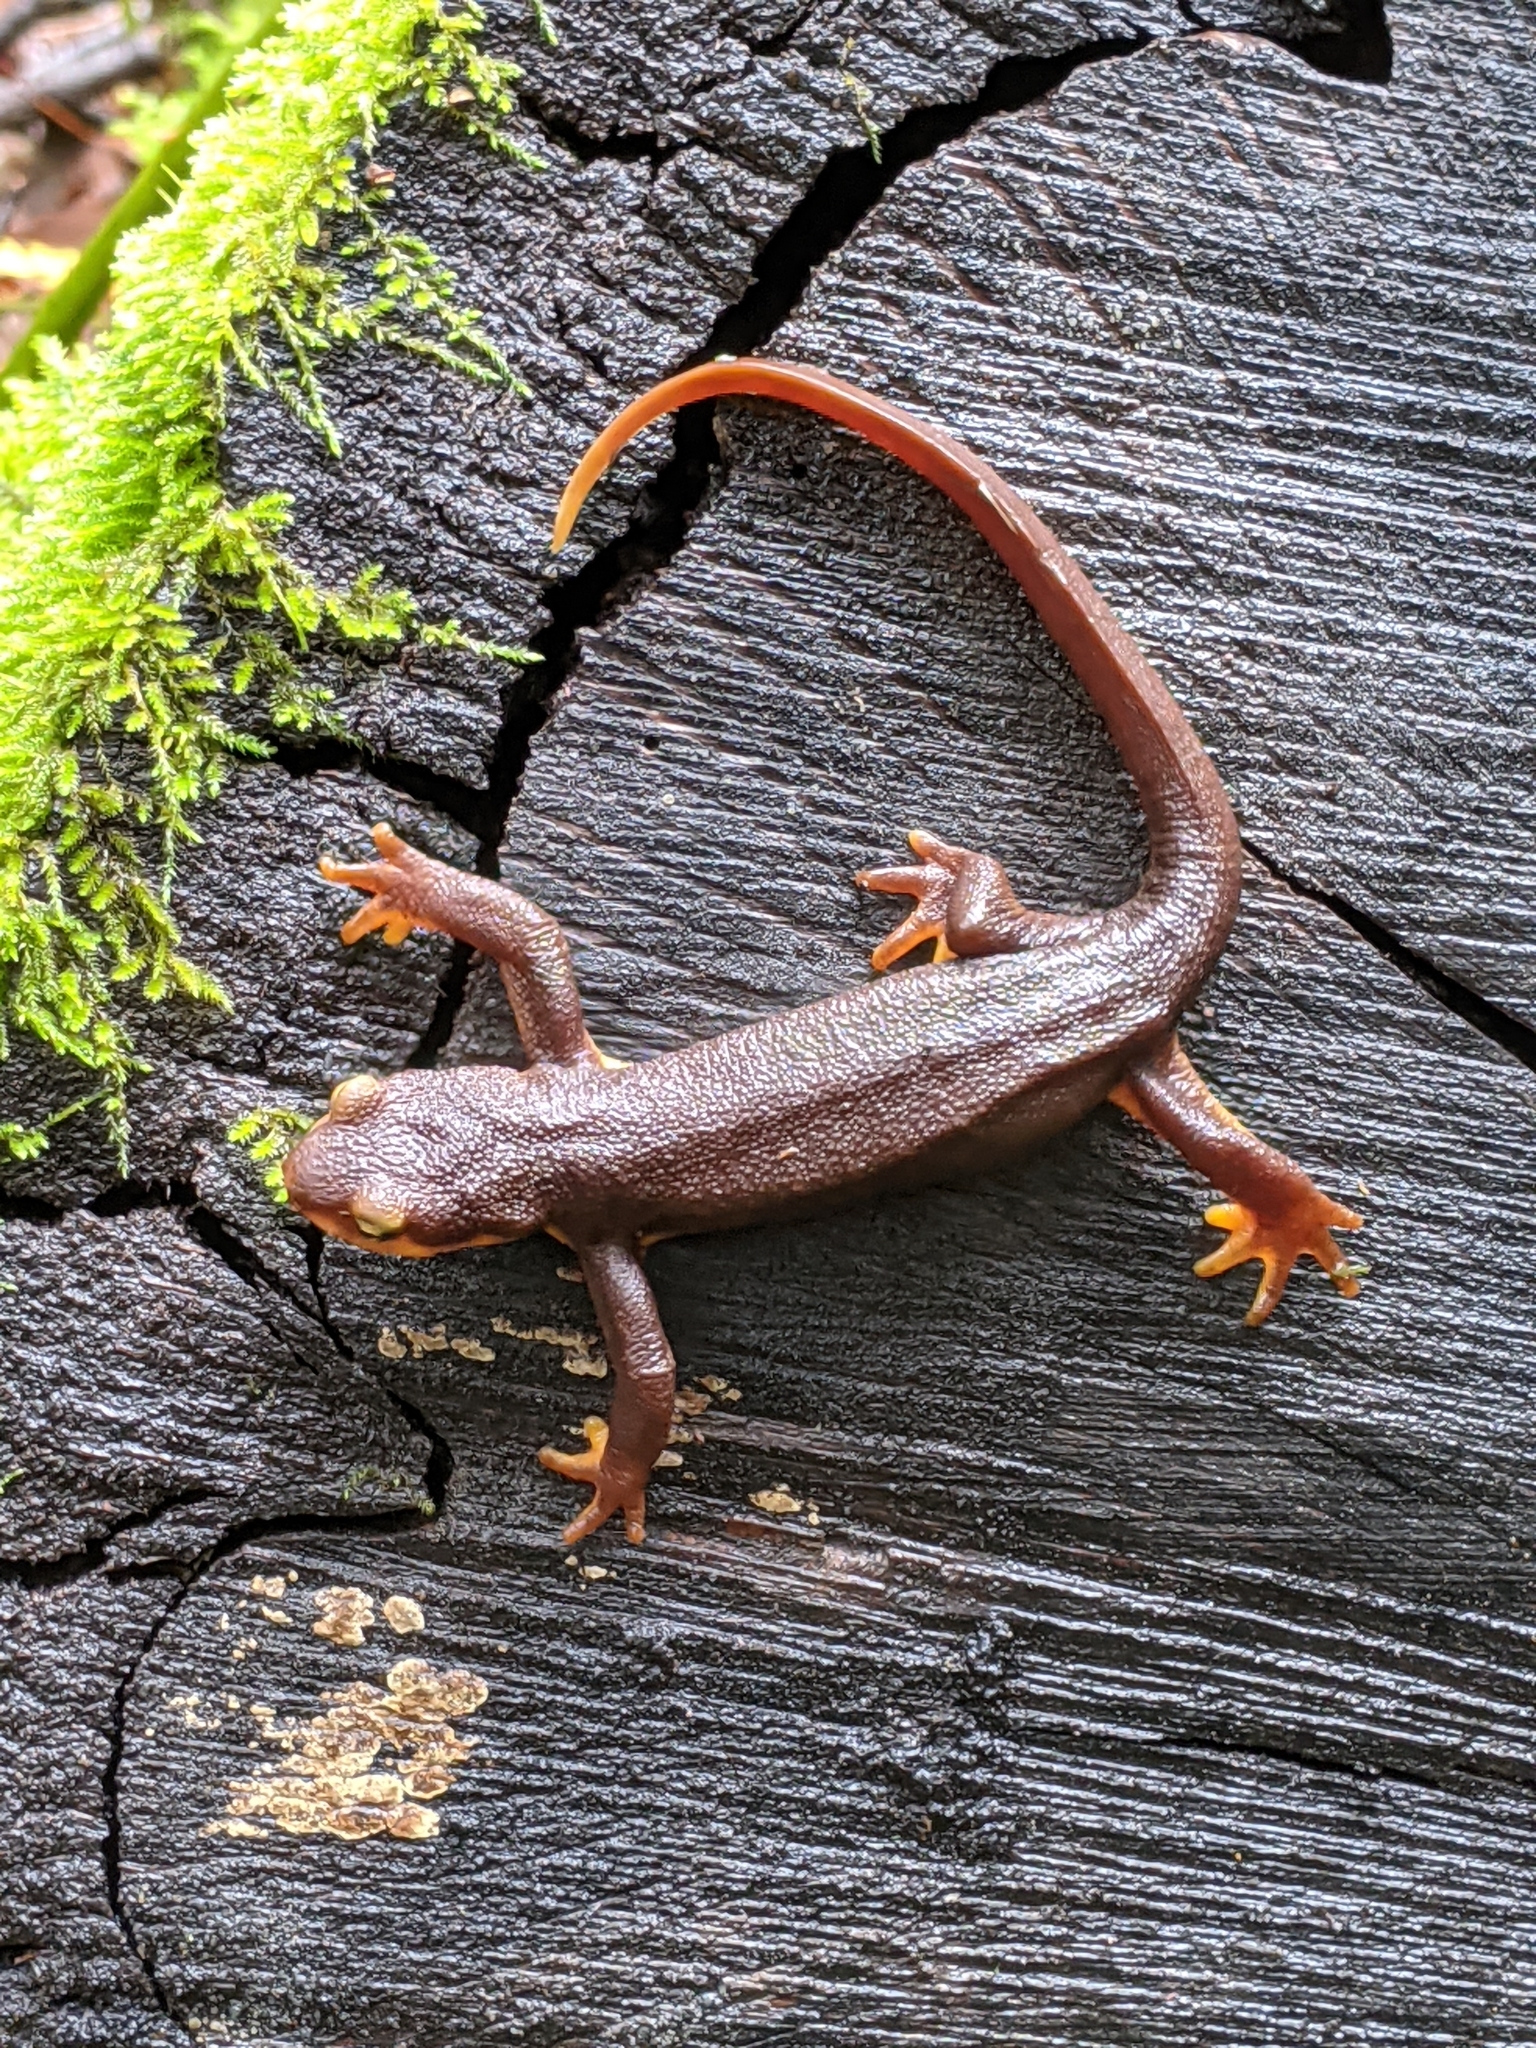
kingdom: Animalia
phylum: Chordata
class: Amphibia
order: Caudata
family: Salamandridae
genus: Taricha
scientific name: Taricha torosa
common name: California newt
